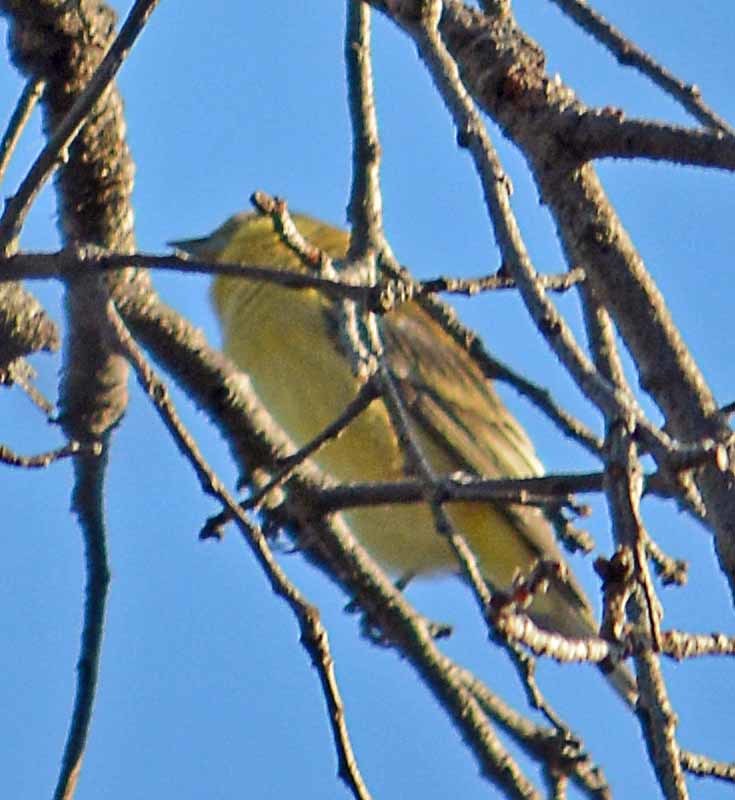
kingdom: Animalia
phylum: Chordata
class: Aves
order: Passeriformes
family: Fringillidae
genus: Spinus
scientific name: Spinus psaltria
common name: Lesser goldfinch
